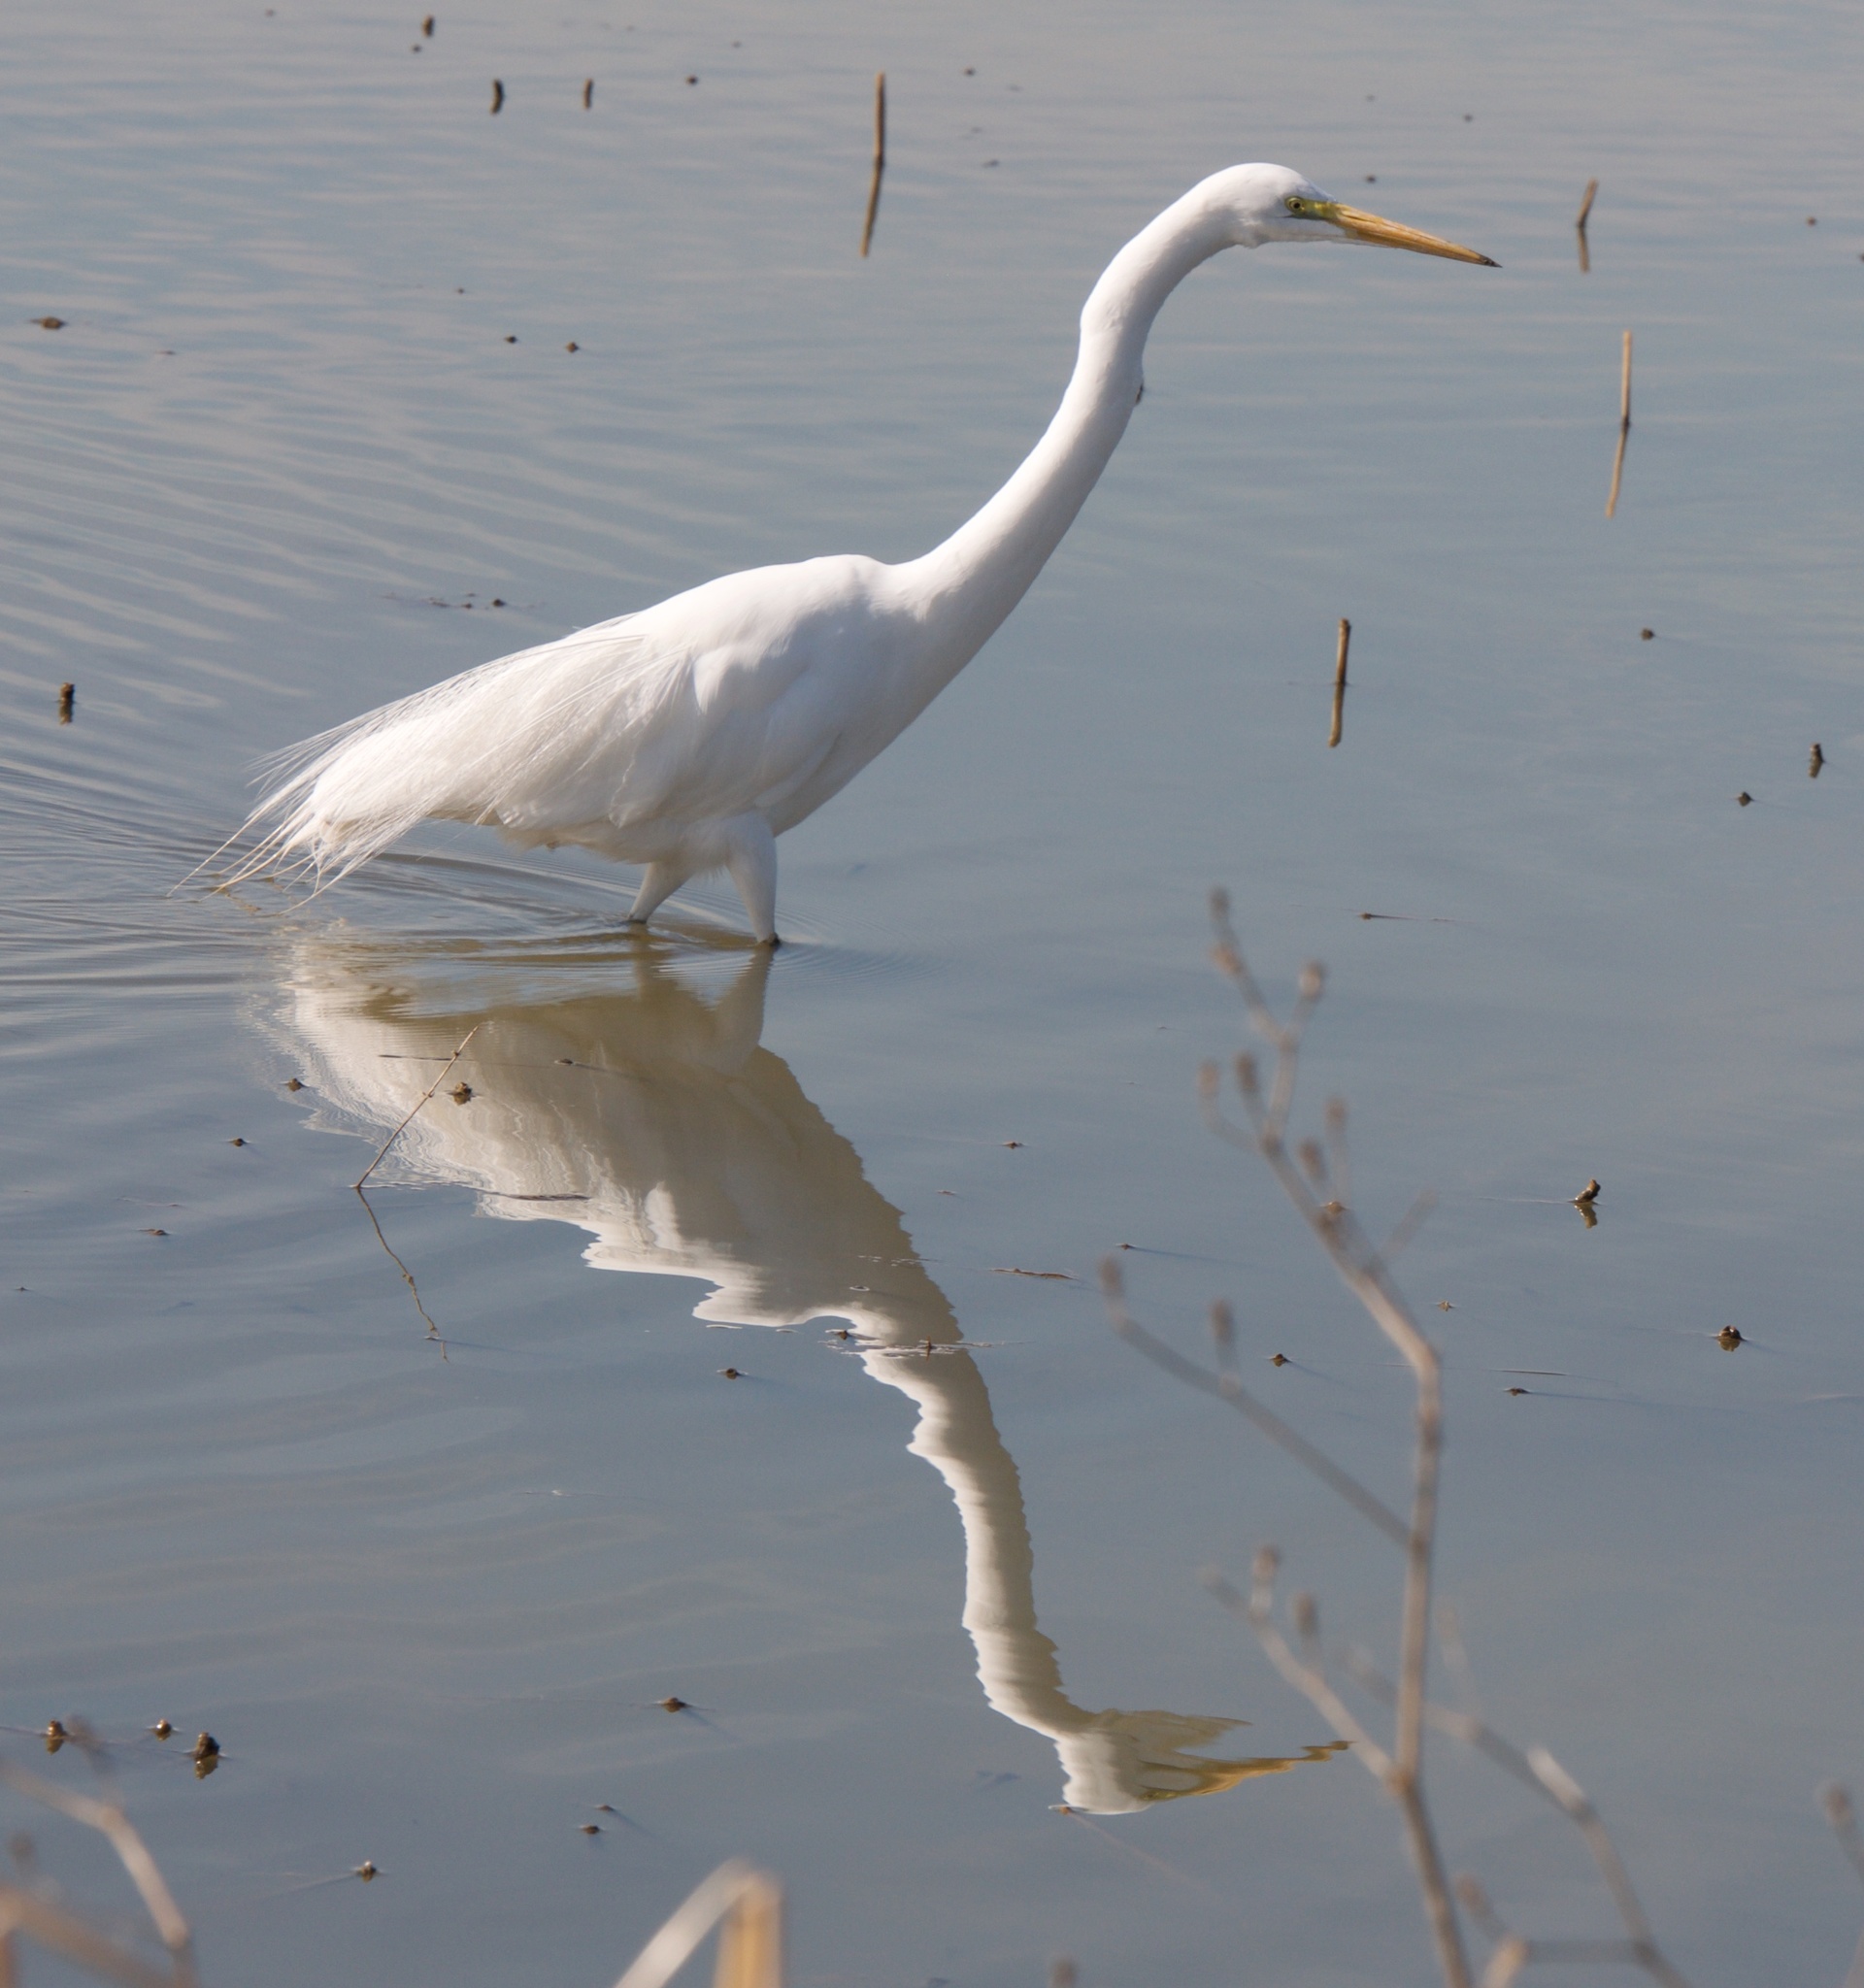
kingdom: Animalia
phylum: Chordata
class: Aves
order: Pelecaniformes
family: Ardeidae
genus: Ardea
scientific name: Ardea alba
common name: Great egret
